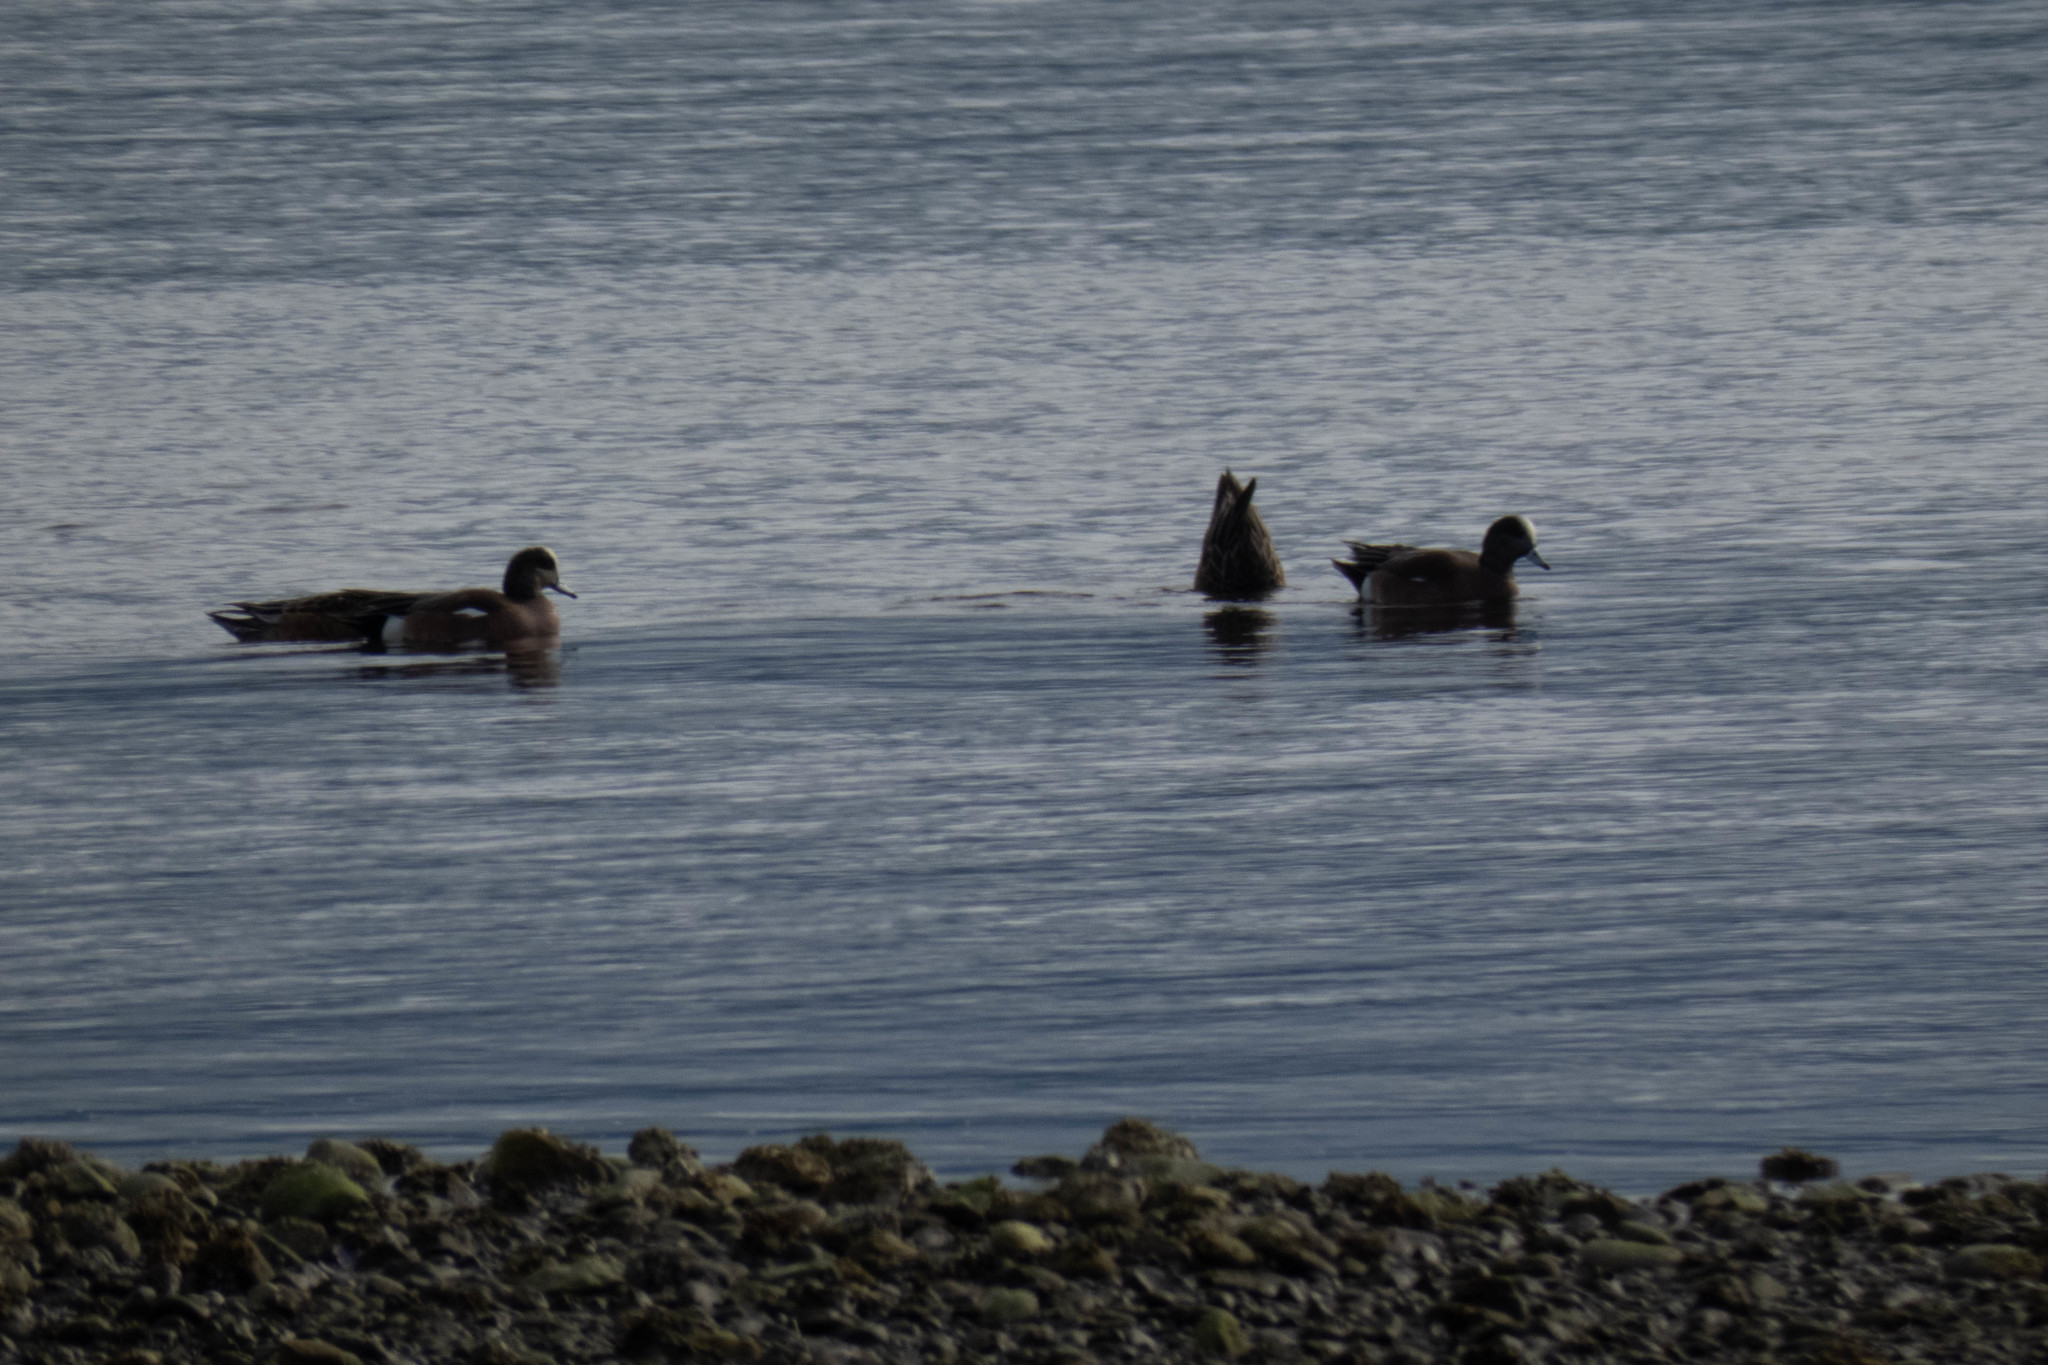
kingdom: Animalia
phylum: Chordata
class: Aves
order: Anseriformes
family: Anatidae
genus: Mareca
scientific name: Mareca americana
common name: American wigeon
